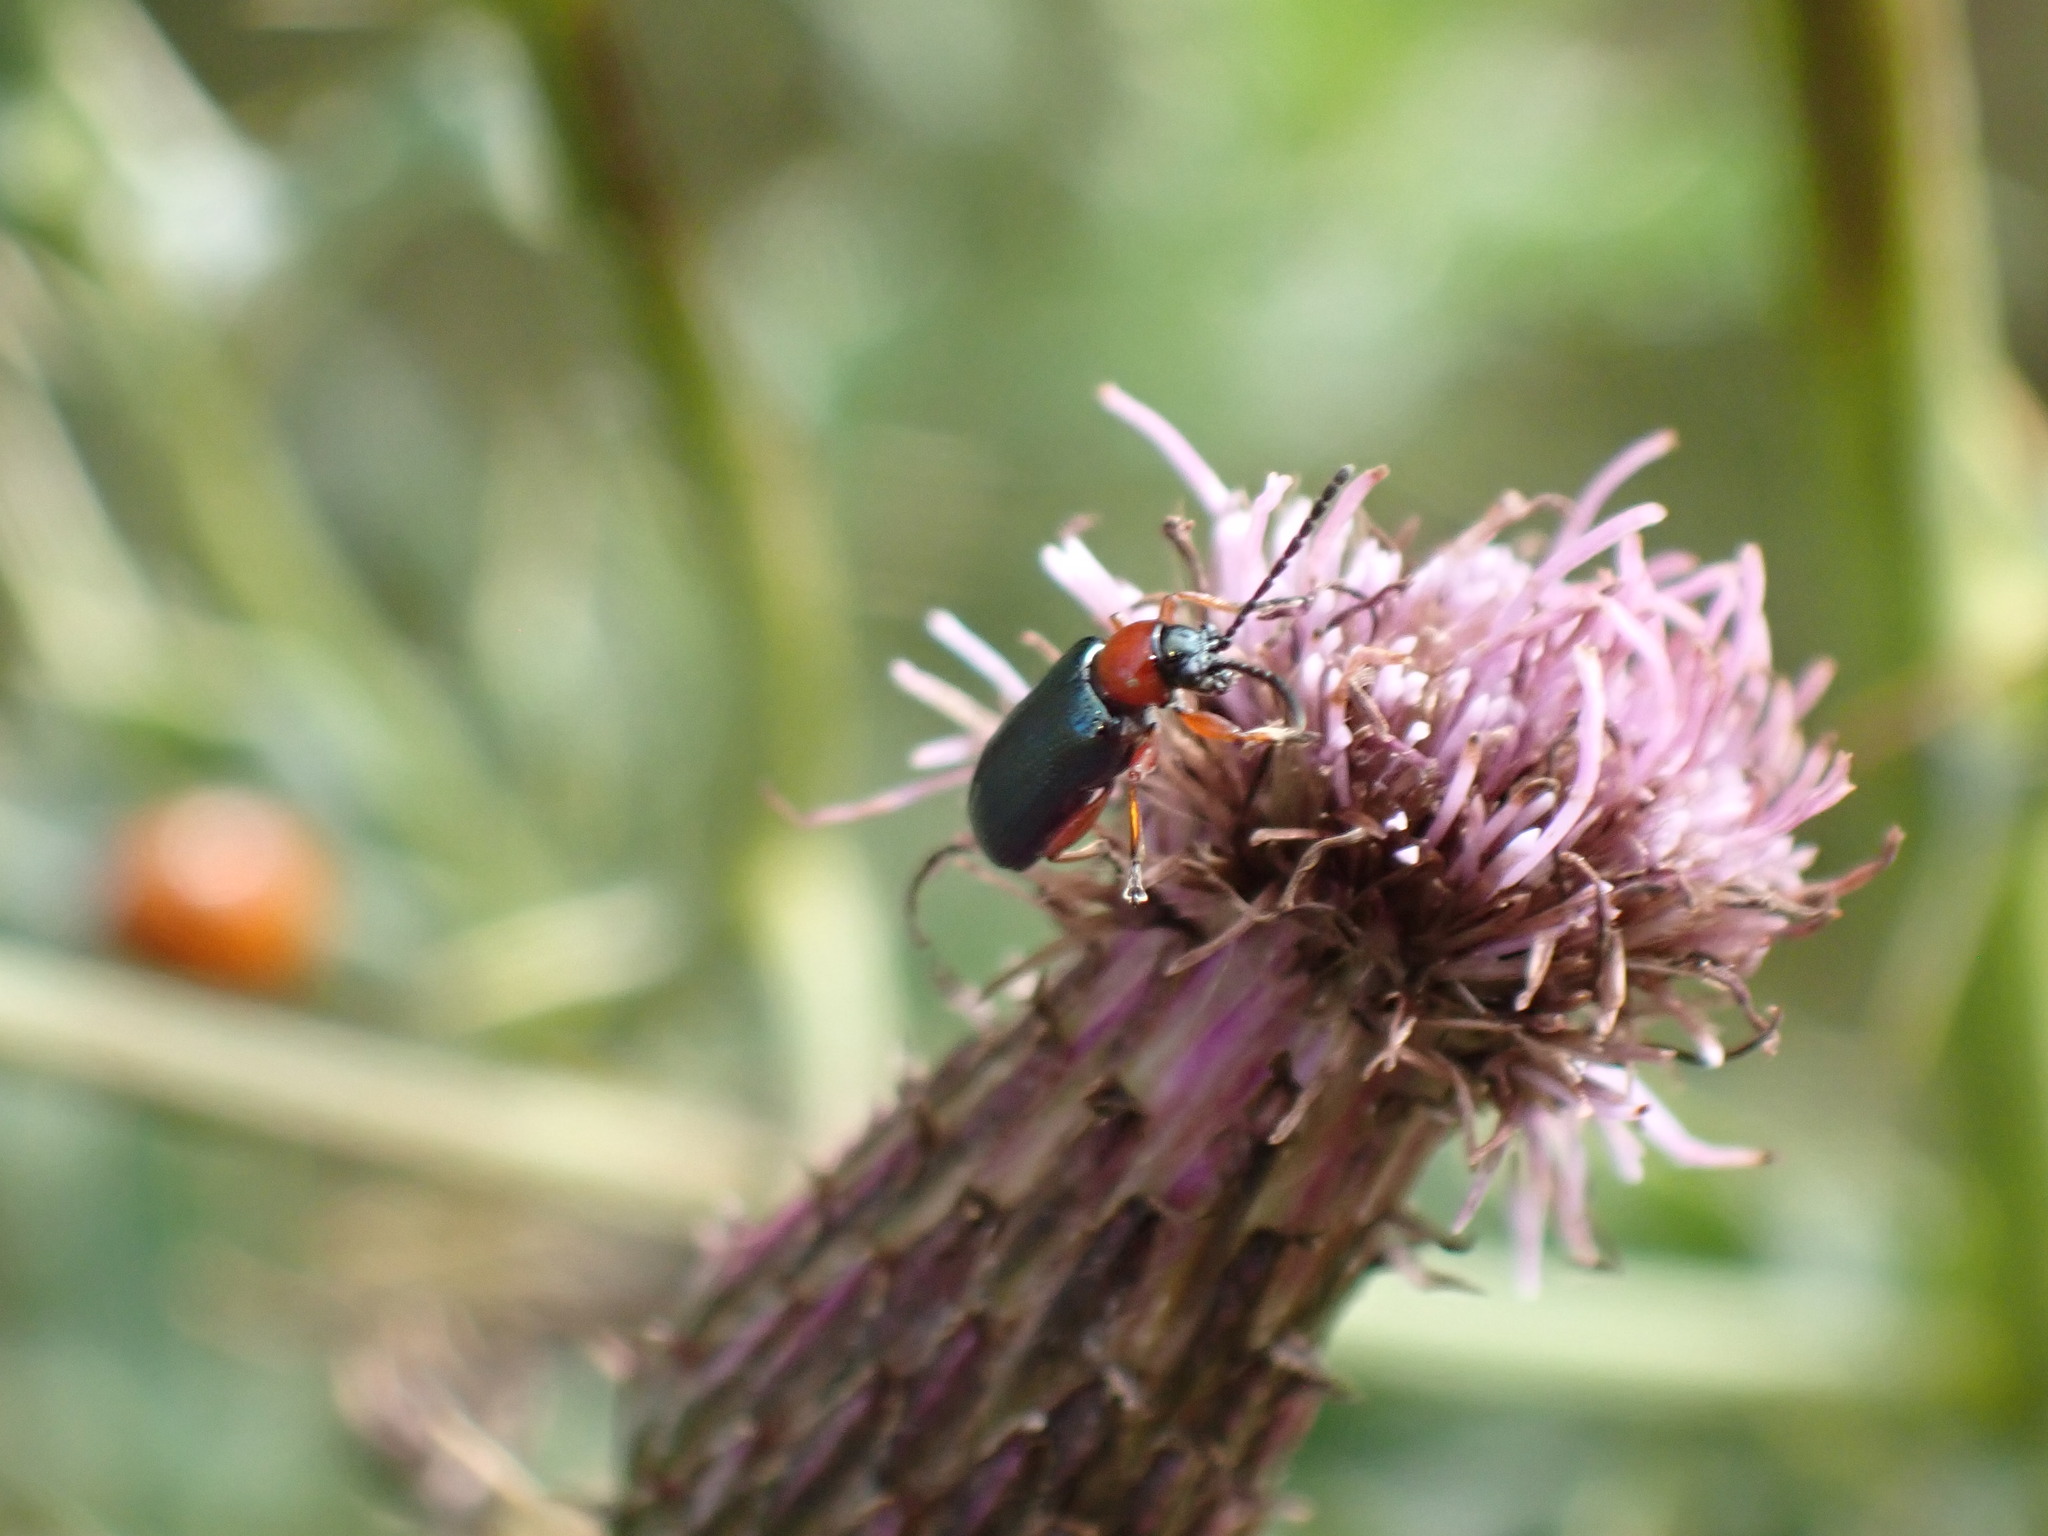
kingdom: Animalia
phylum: Arthropoda
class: Insecta
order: Coleoptera
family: Chrysomelidae
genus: Oulema
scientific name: Oulema
